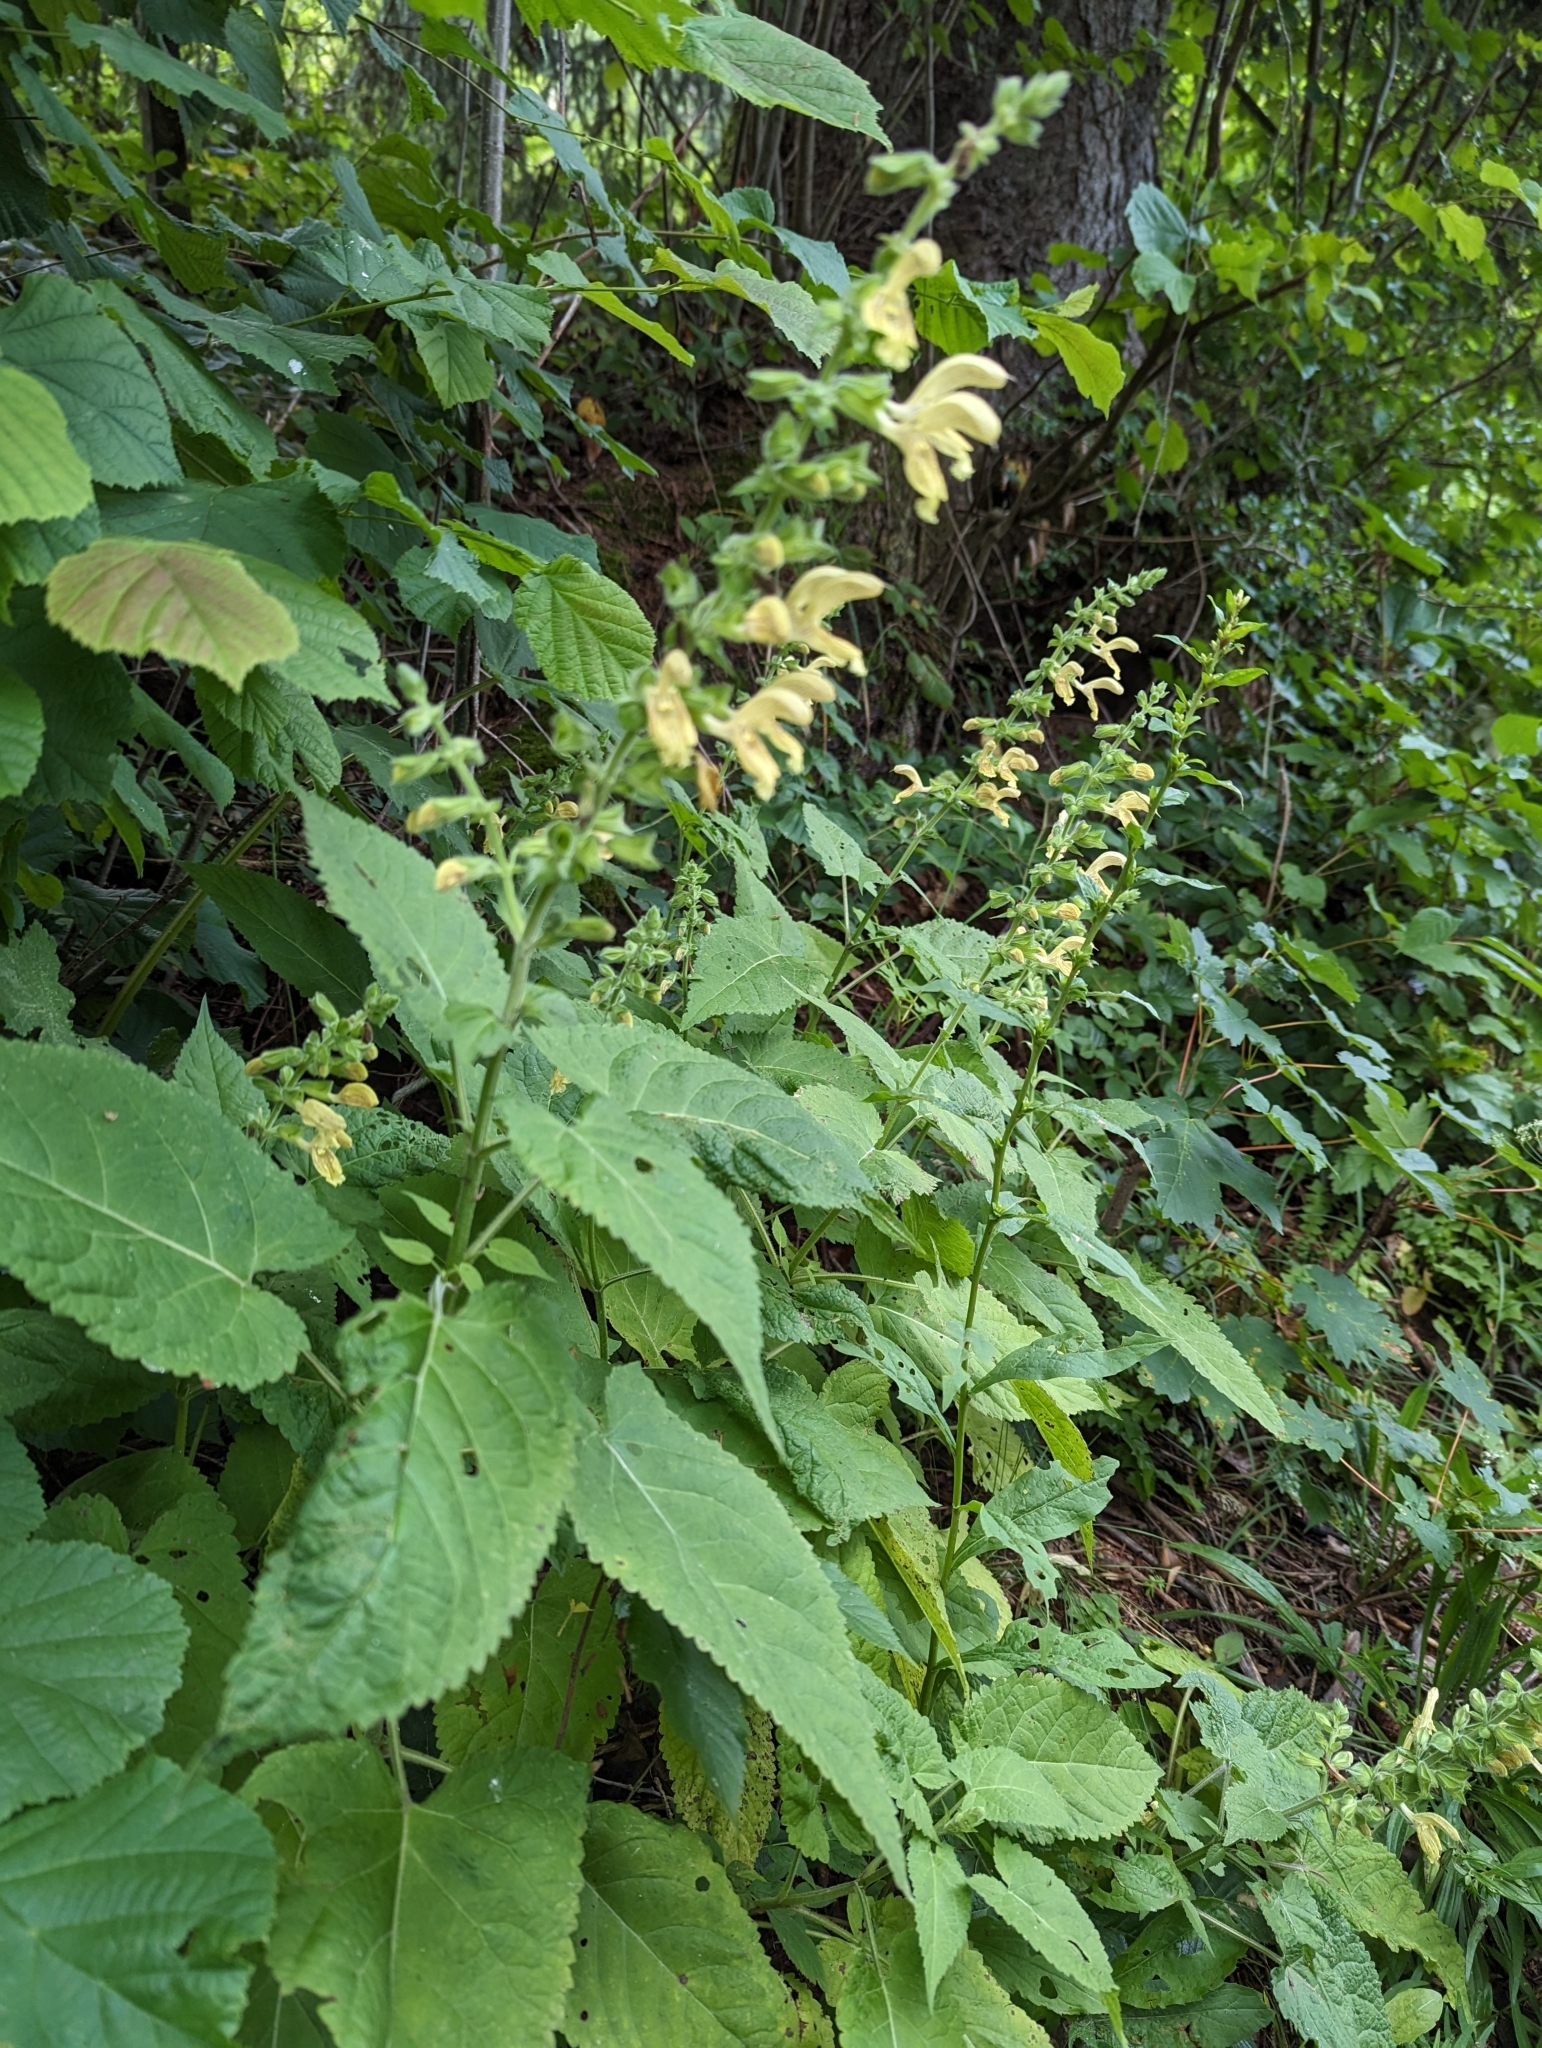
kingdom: Plantae
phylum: Tracheophyta
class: Magnoliopsida
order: Lamiales
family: Lamiaceae
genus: Salvia
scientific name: Salvia glutinosa
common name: Sticky clary
